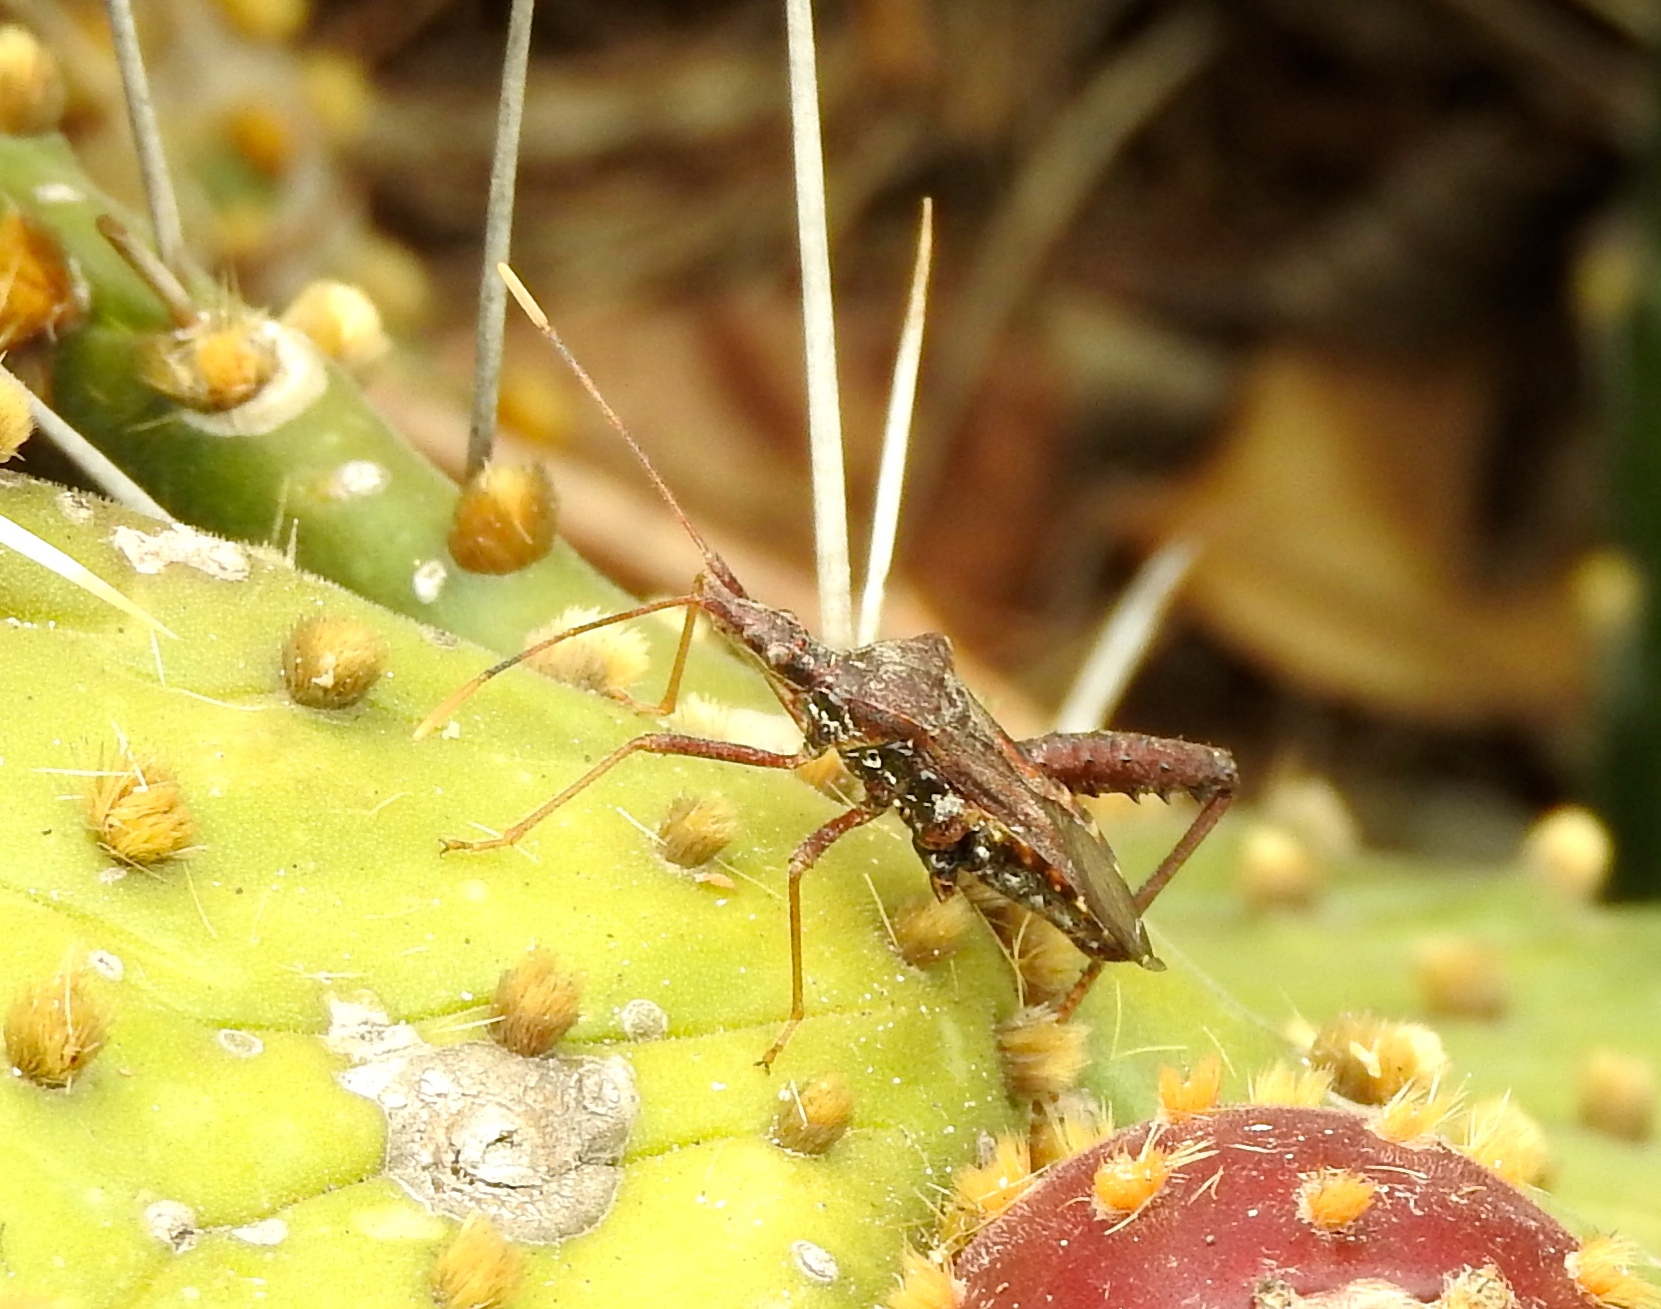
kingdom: Animalia
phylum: Arthropoda
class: Insecta
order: Hemiptera
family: Coreidae
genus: Narnia
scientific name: Narnia inornata
